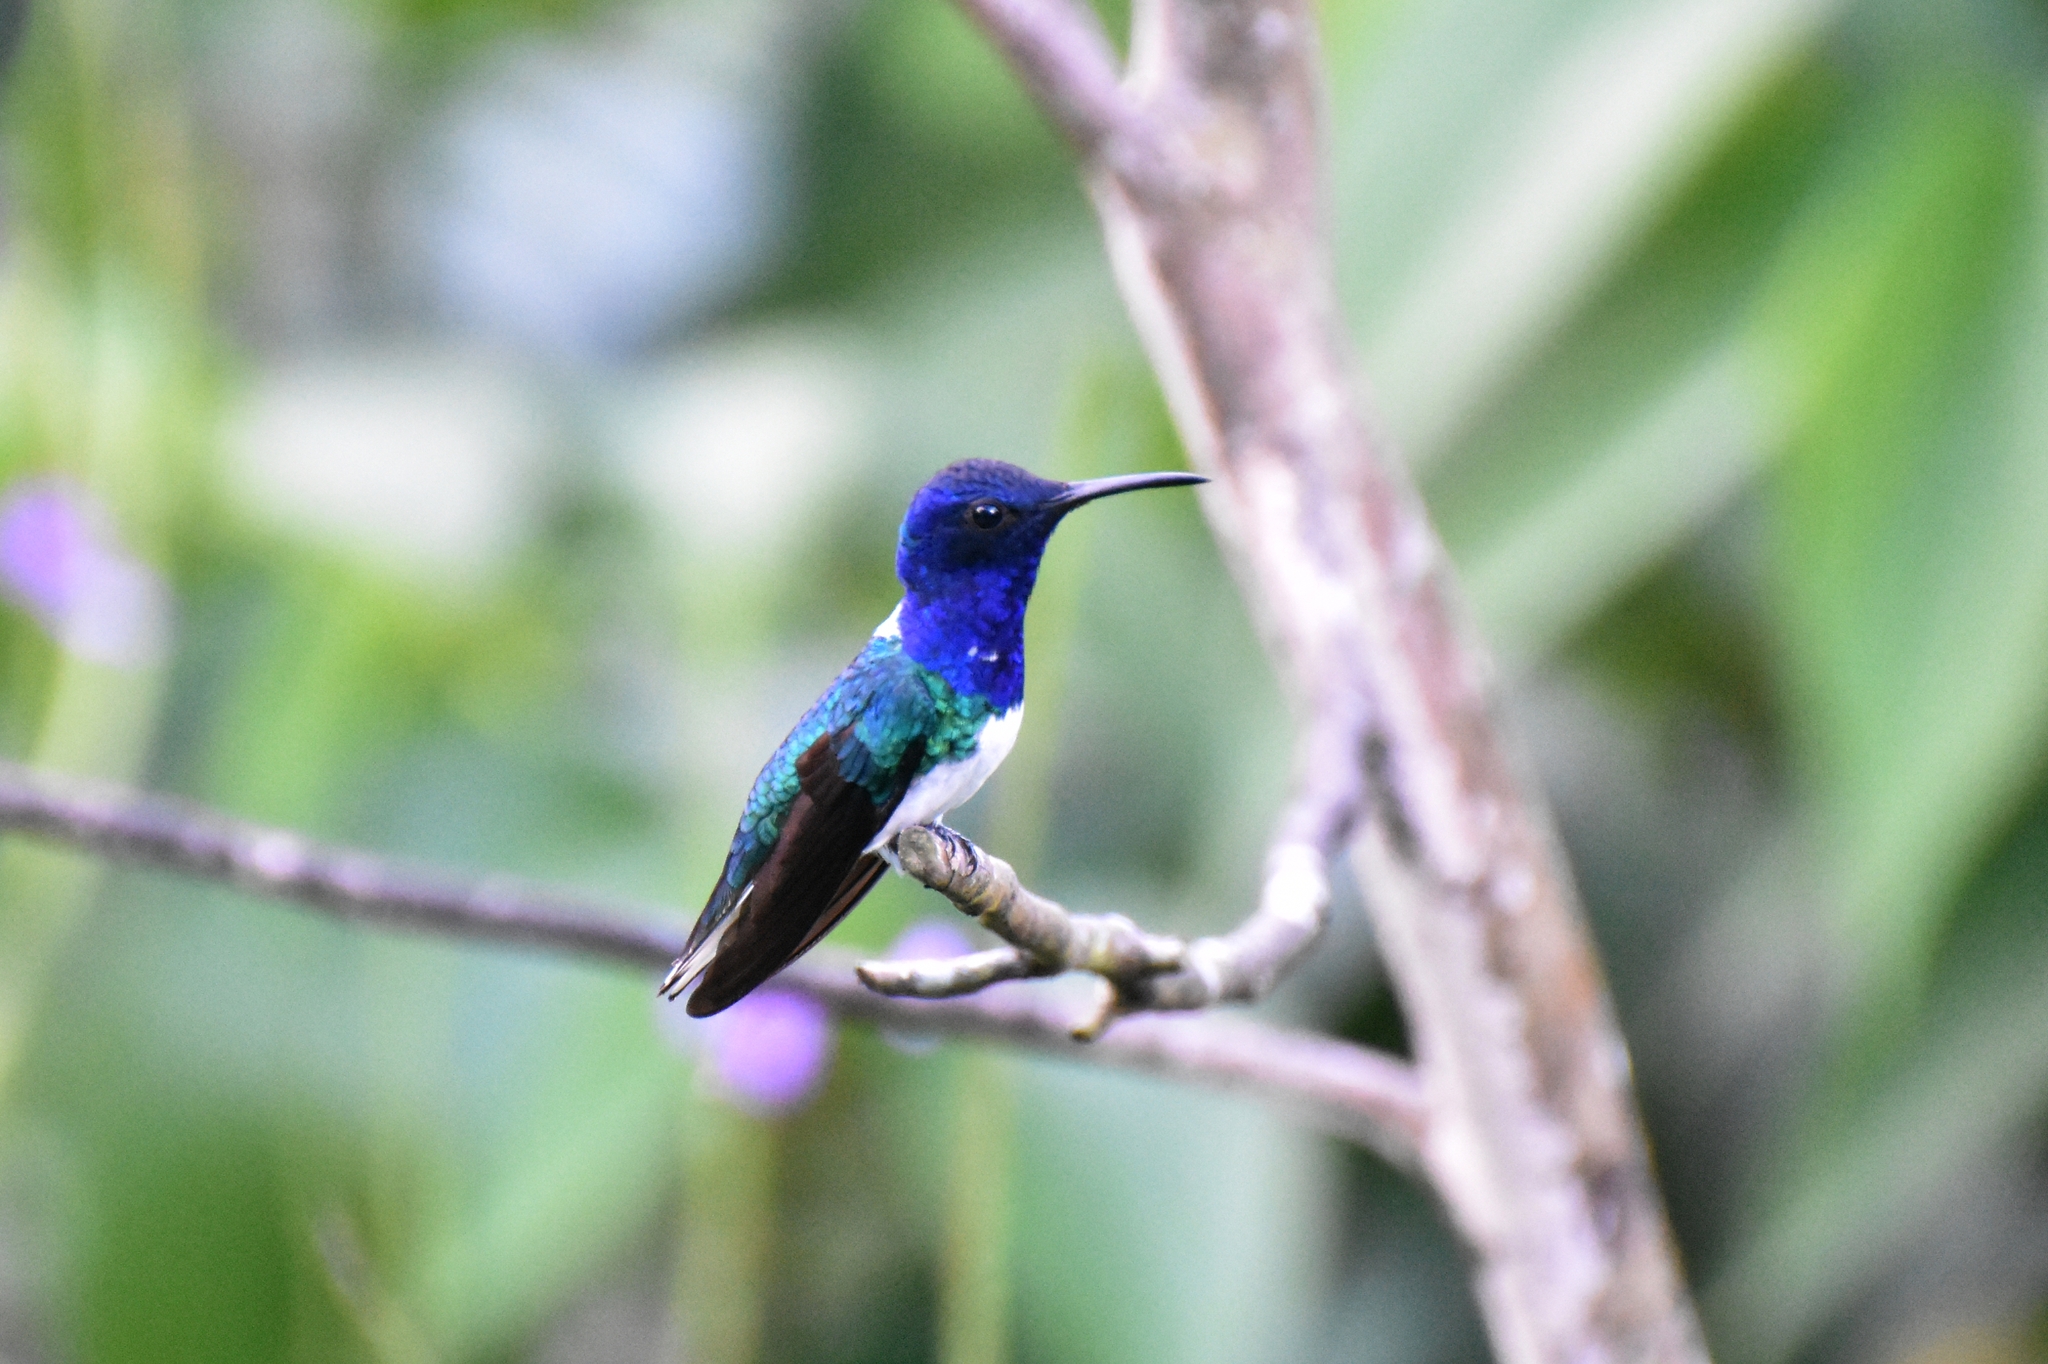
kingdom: Animalia
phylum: Chordata
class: Aves
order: Apodiformes
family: Trochilidae
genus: Florisuga
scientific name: Florisuga mellivora
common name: White-necked jacobin
